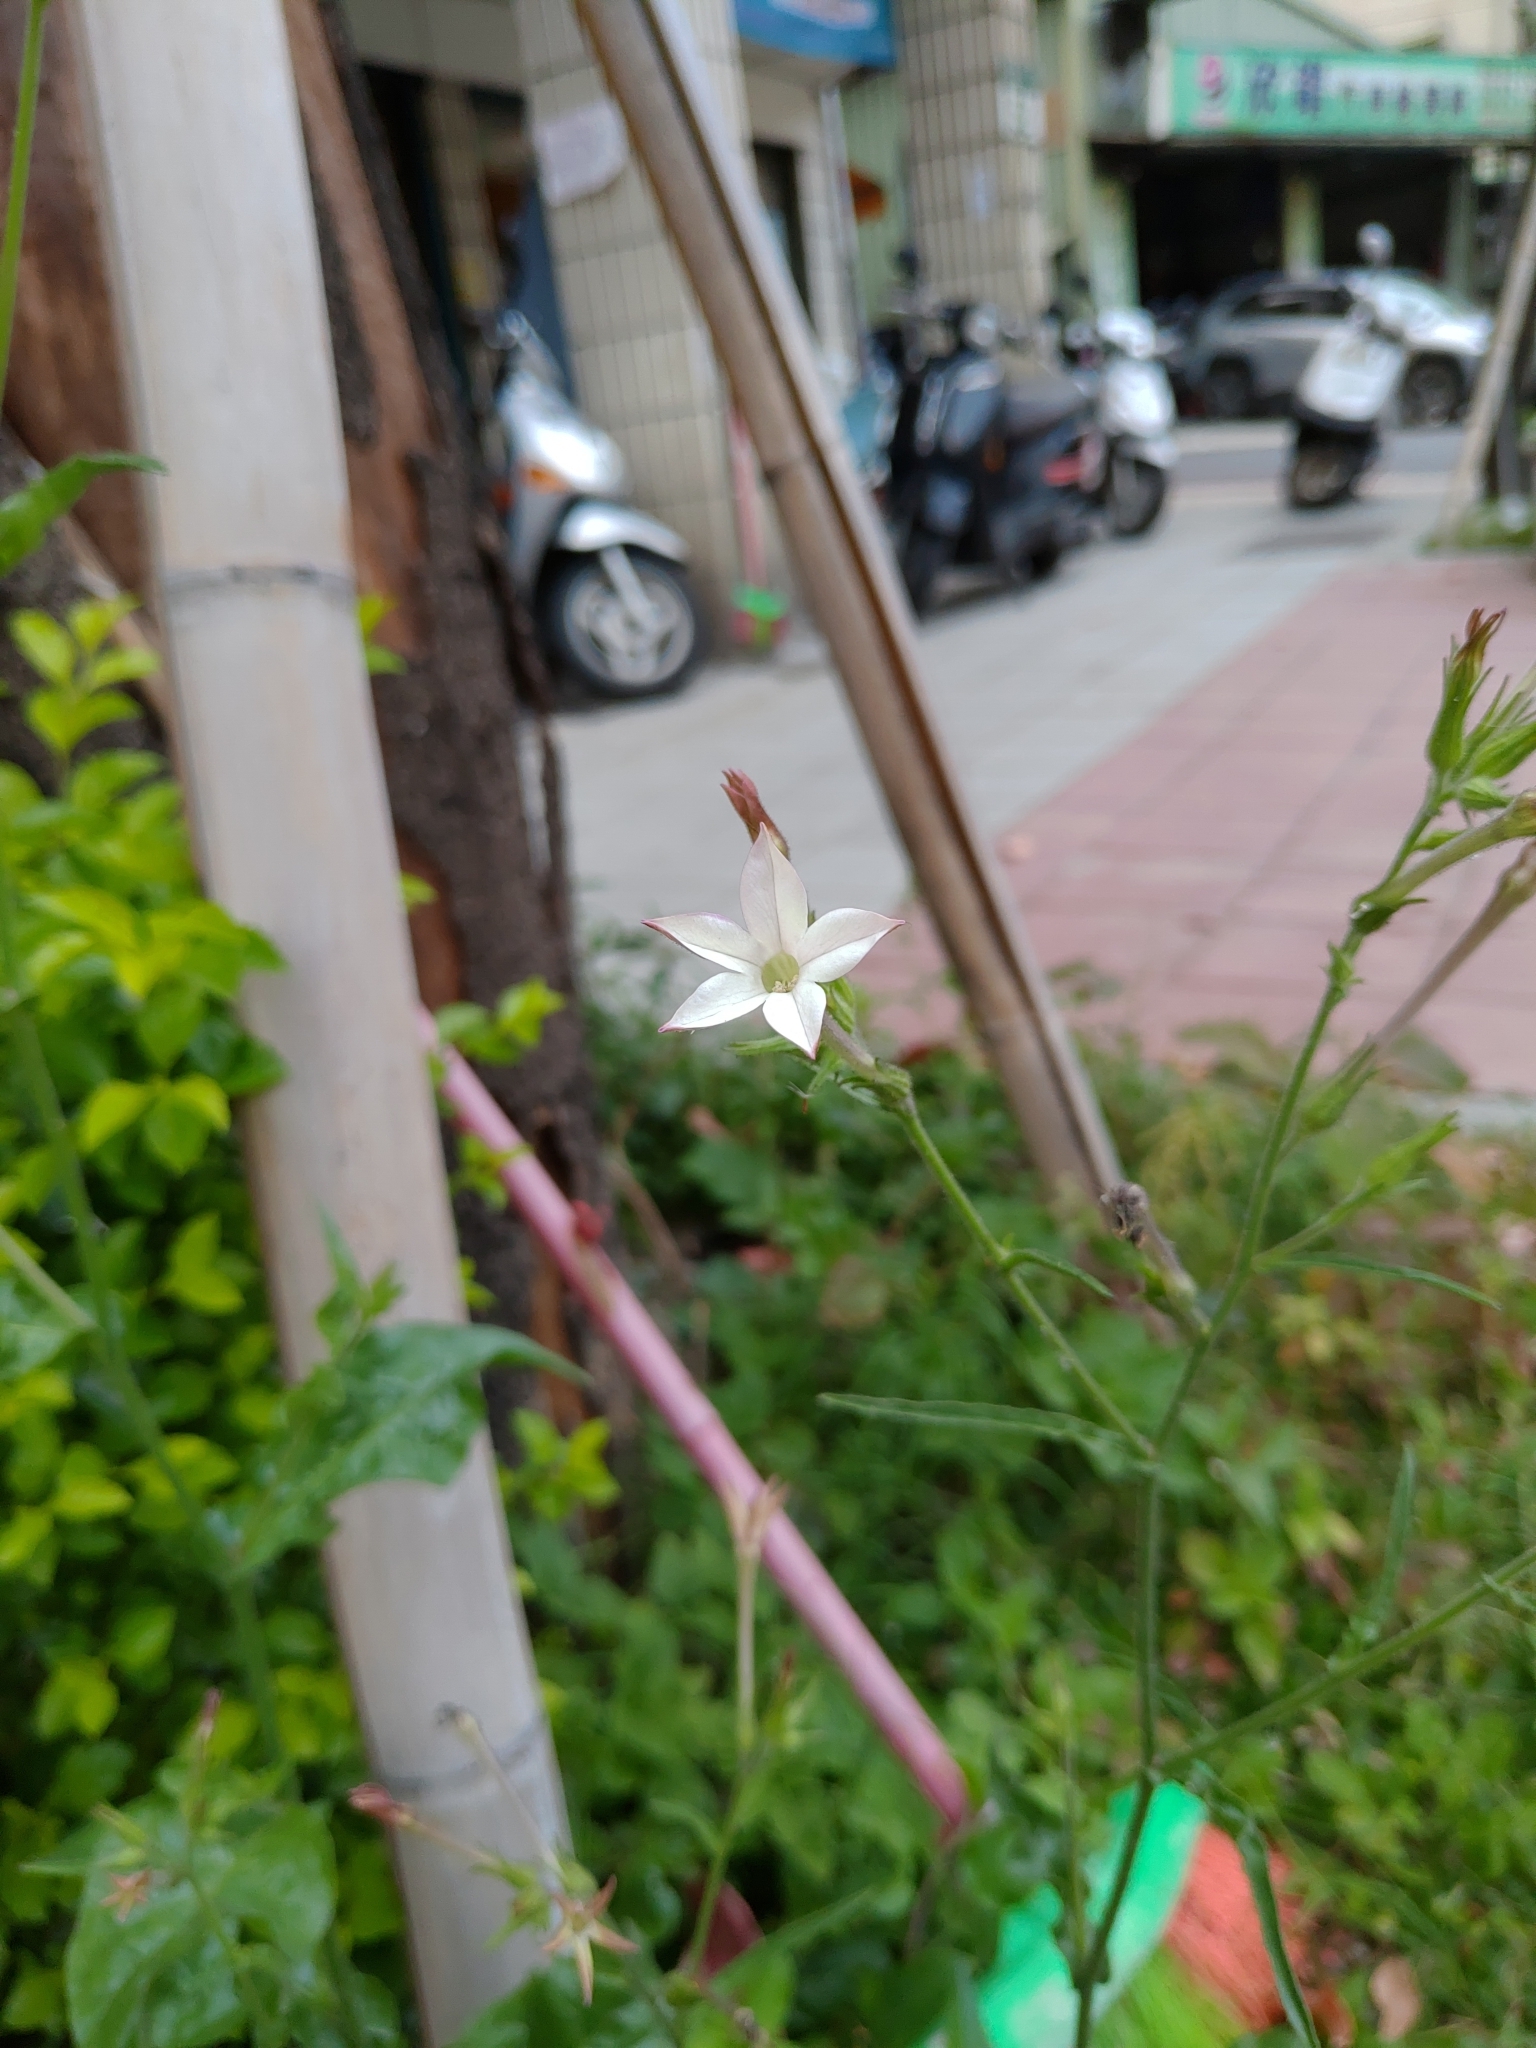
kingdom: Plantae
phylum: Tracheophyta
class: Magnoliopsida
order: Solanales
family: Solanaceae
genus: Nicotiana
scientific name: Nicotiana plumbaginifolia
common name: Tex-mex tobacco
